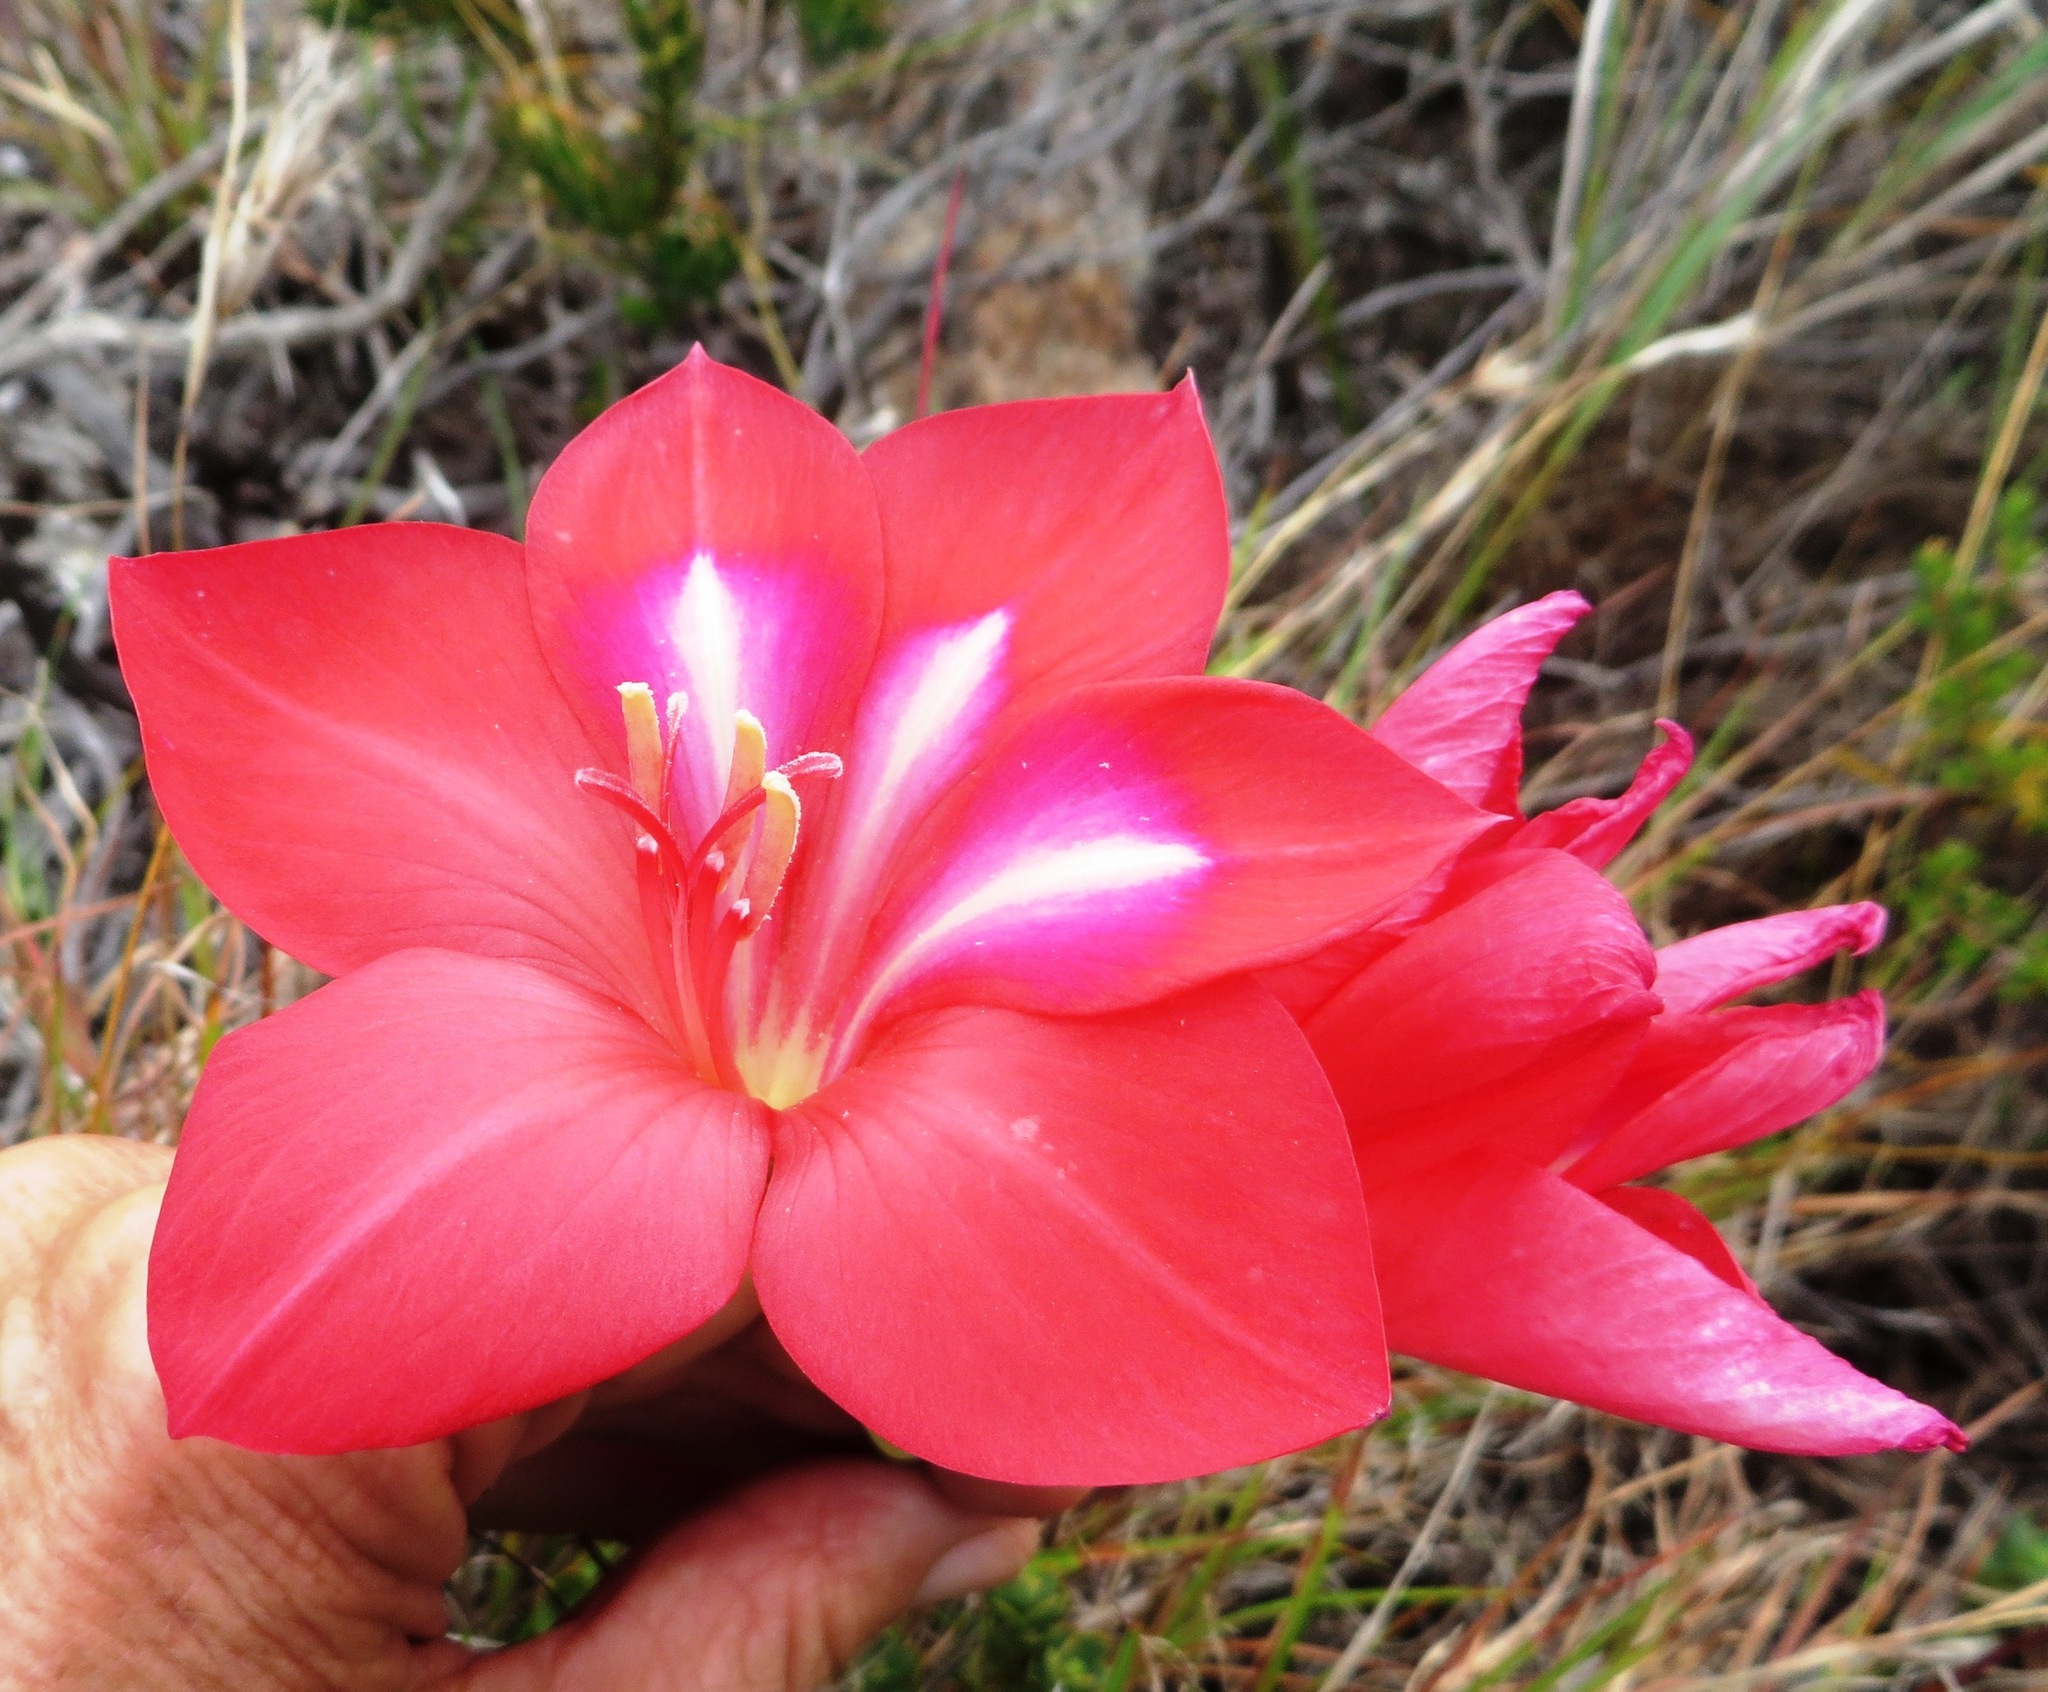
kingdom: Plantae
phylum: Tracheophyta
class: Liliopsida
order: Asparagales
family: Iridaceae
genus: Gladiolus
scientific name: Gladiolus carmineus
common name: Hermanus gladiolus
